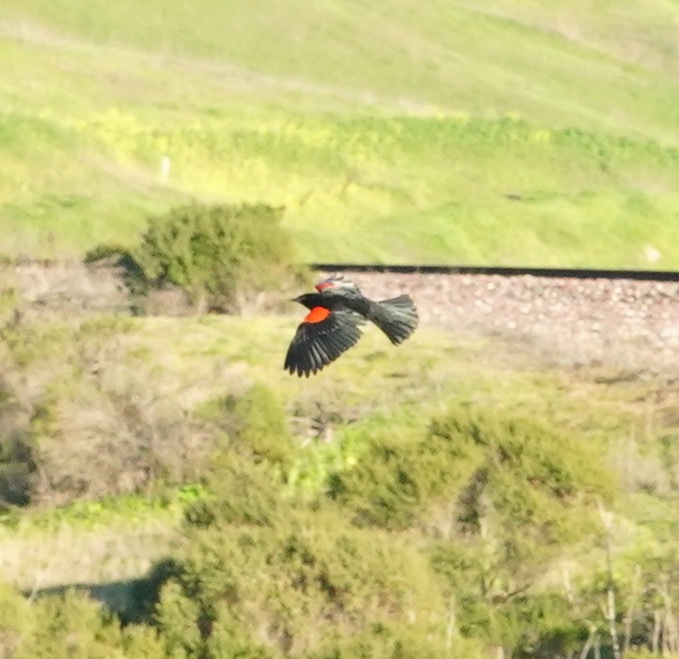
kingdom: Animalia
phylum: Chordata
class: Aves
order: Passeriformes
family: Icteridae
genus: Agelaius
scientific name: Agelaius phoeniceus
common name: Red-winged blackbird
